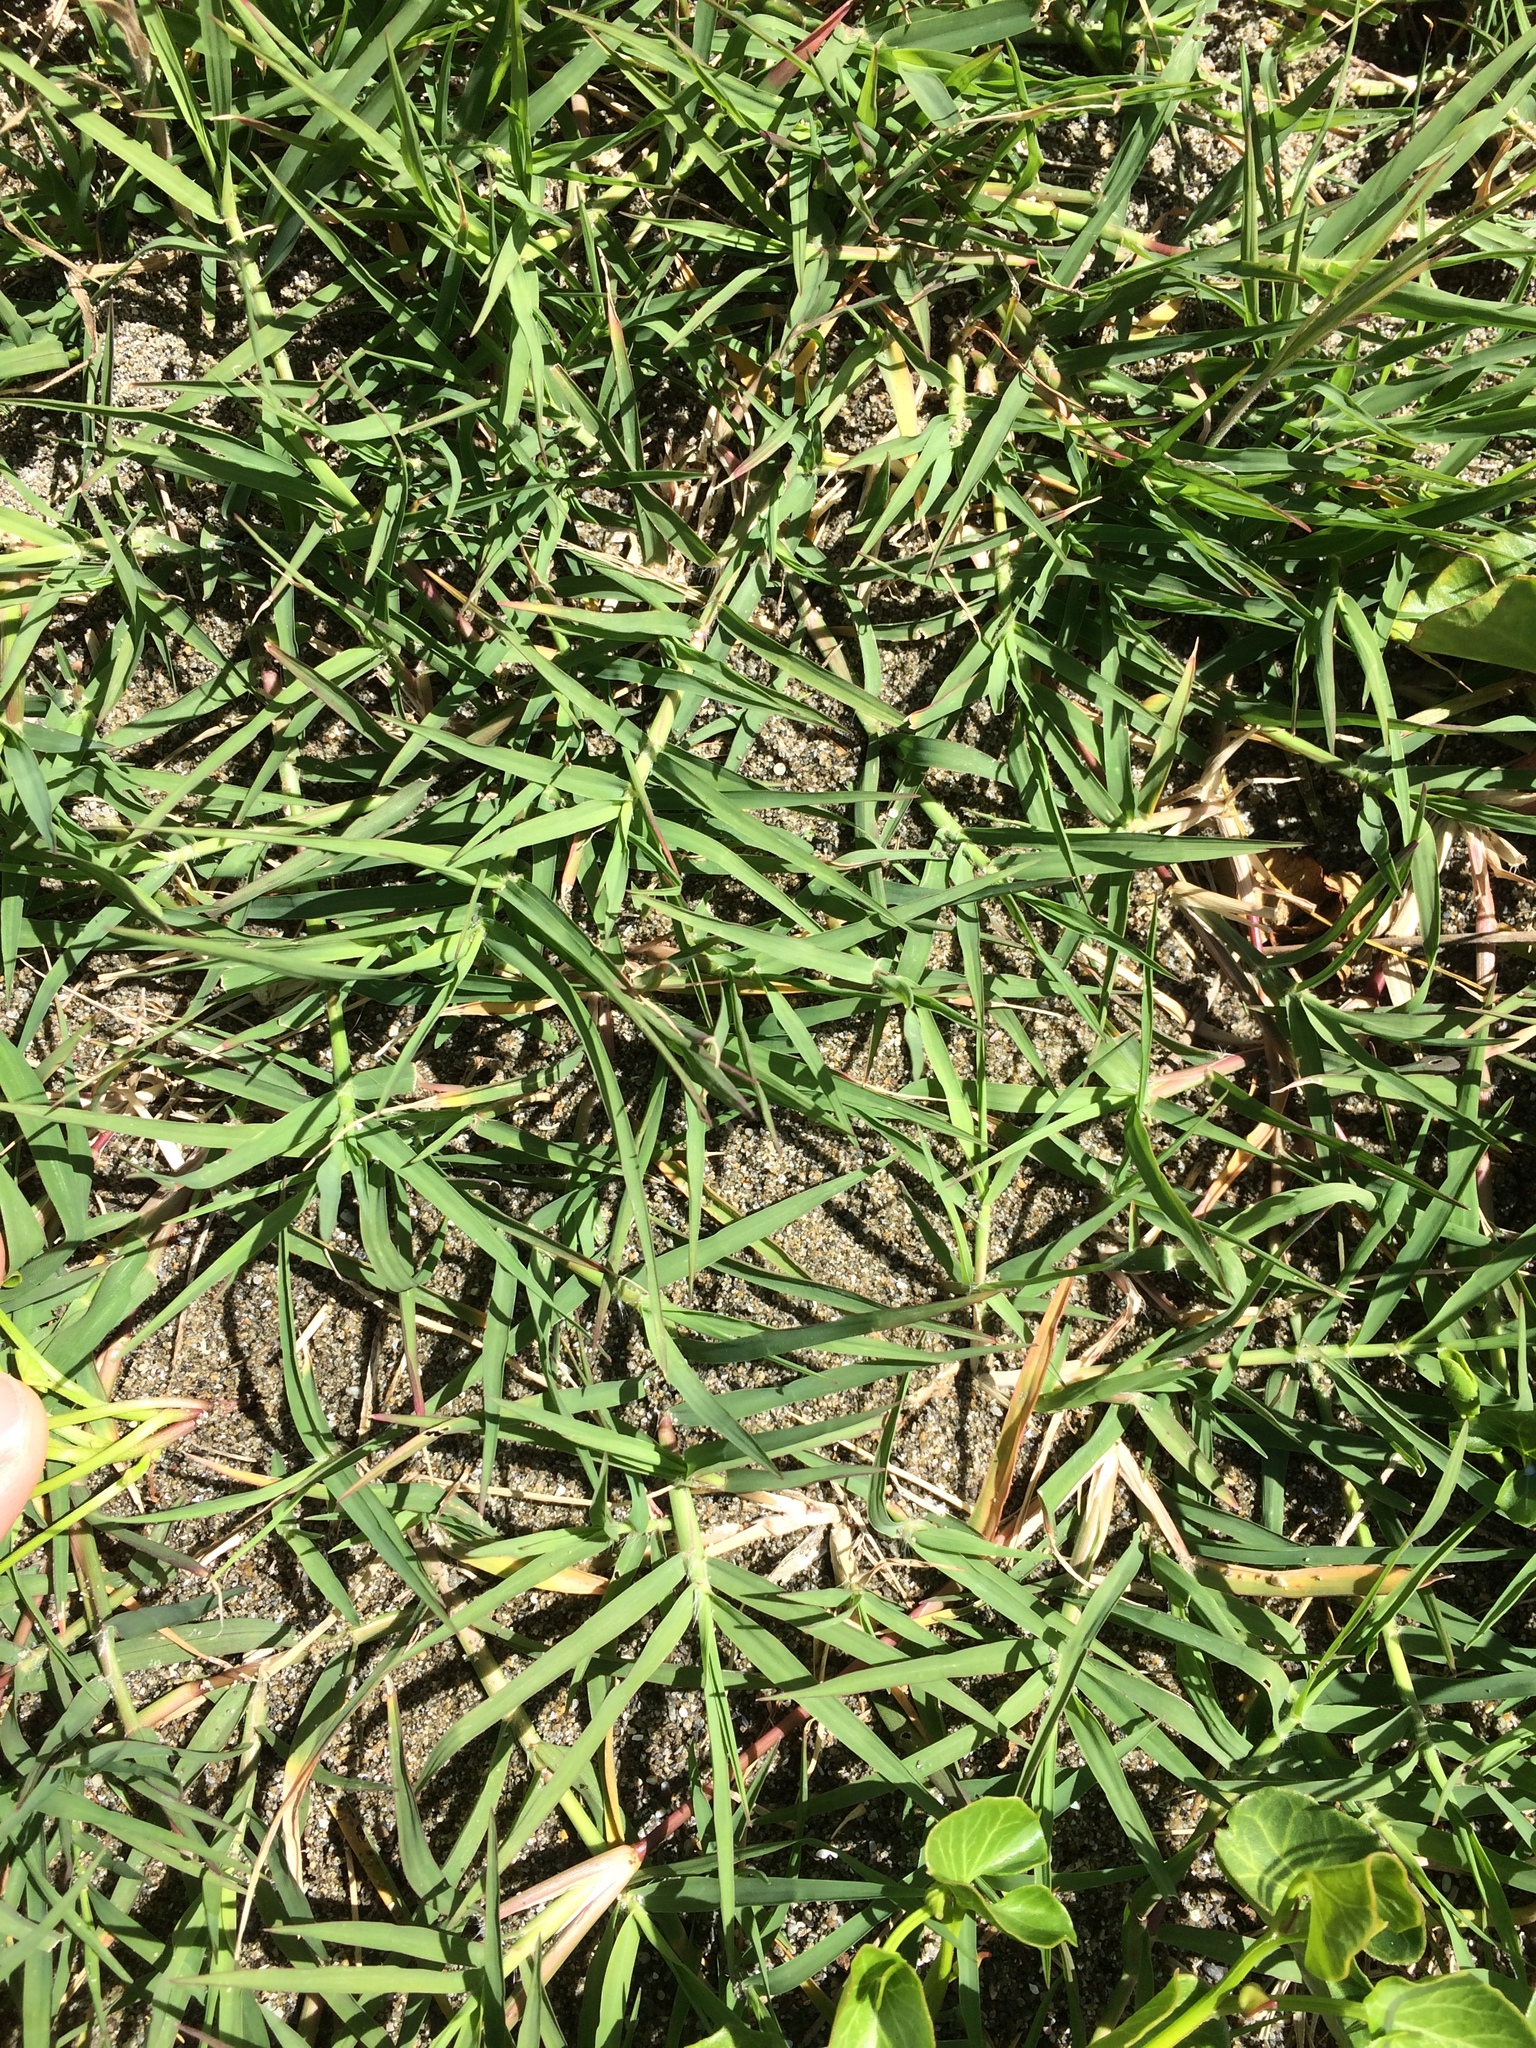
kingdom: Plantae
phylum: Tracheophyta
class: Liliopsida
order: Poales
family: Poaceae
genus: Cynodon
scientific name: Cynodon dactylon
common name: Bermuda grass
